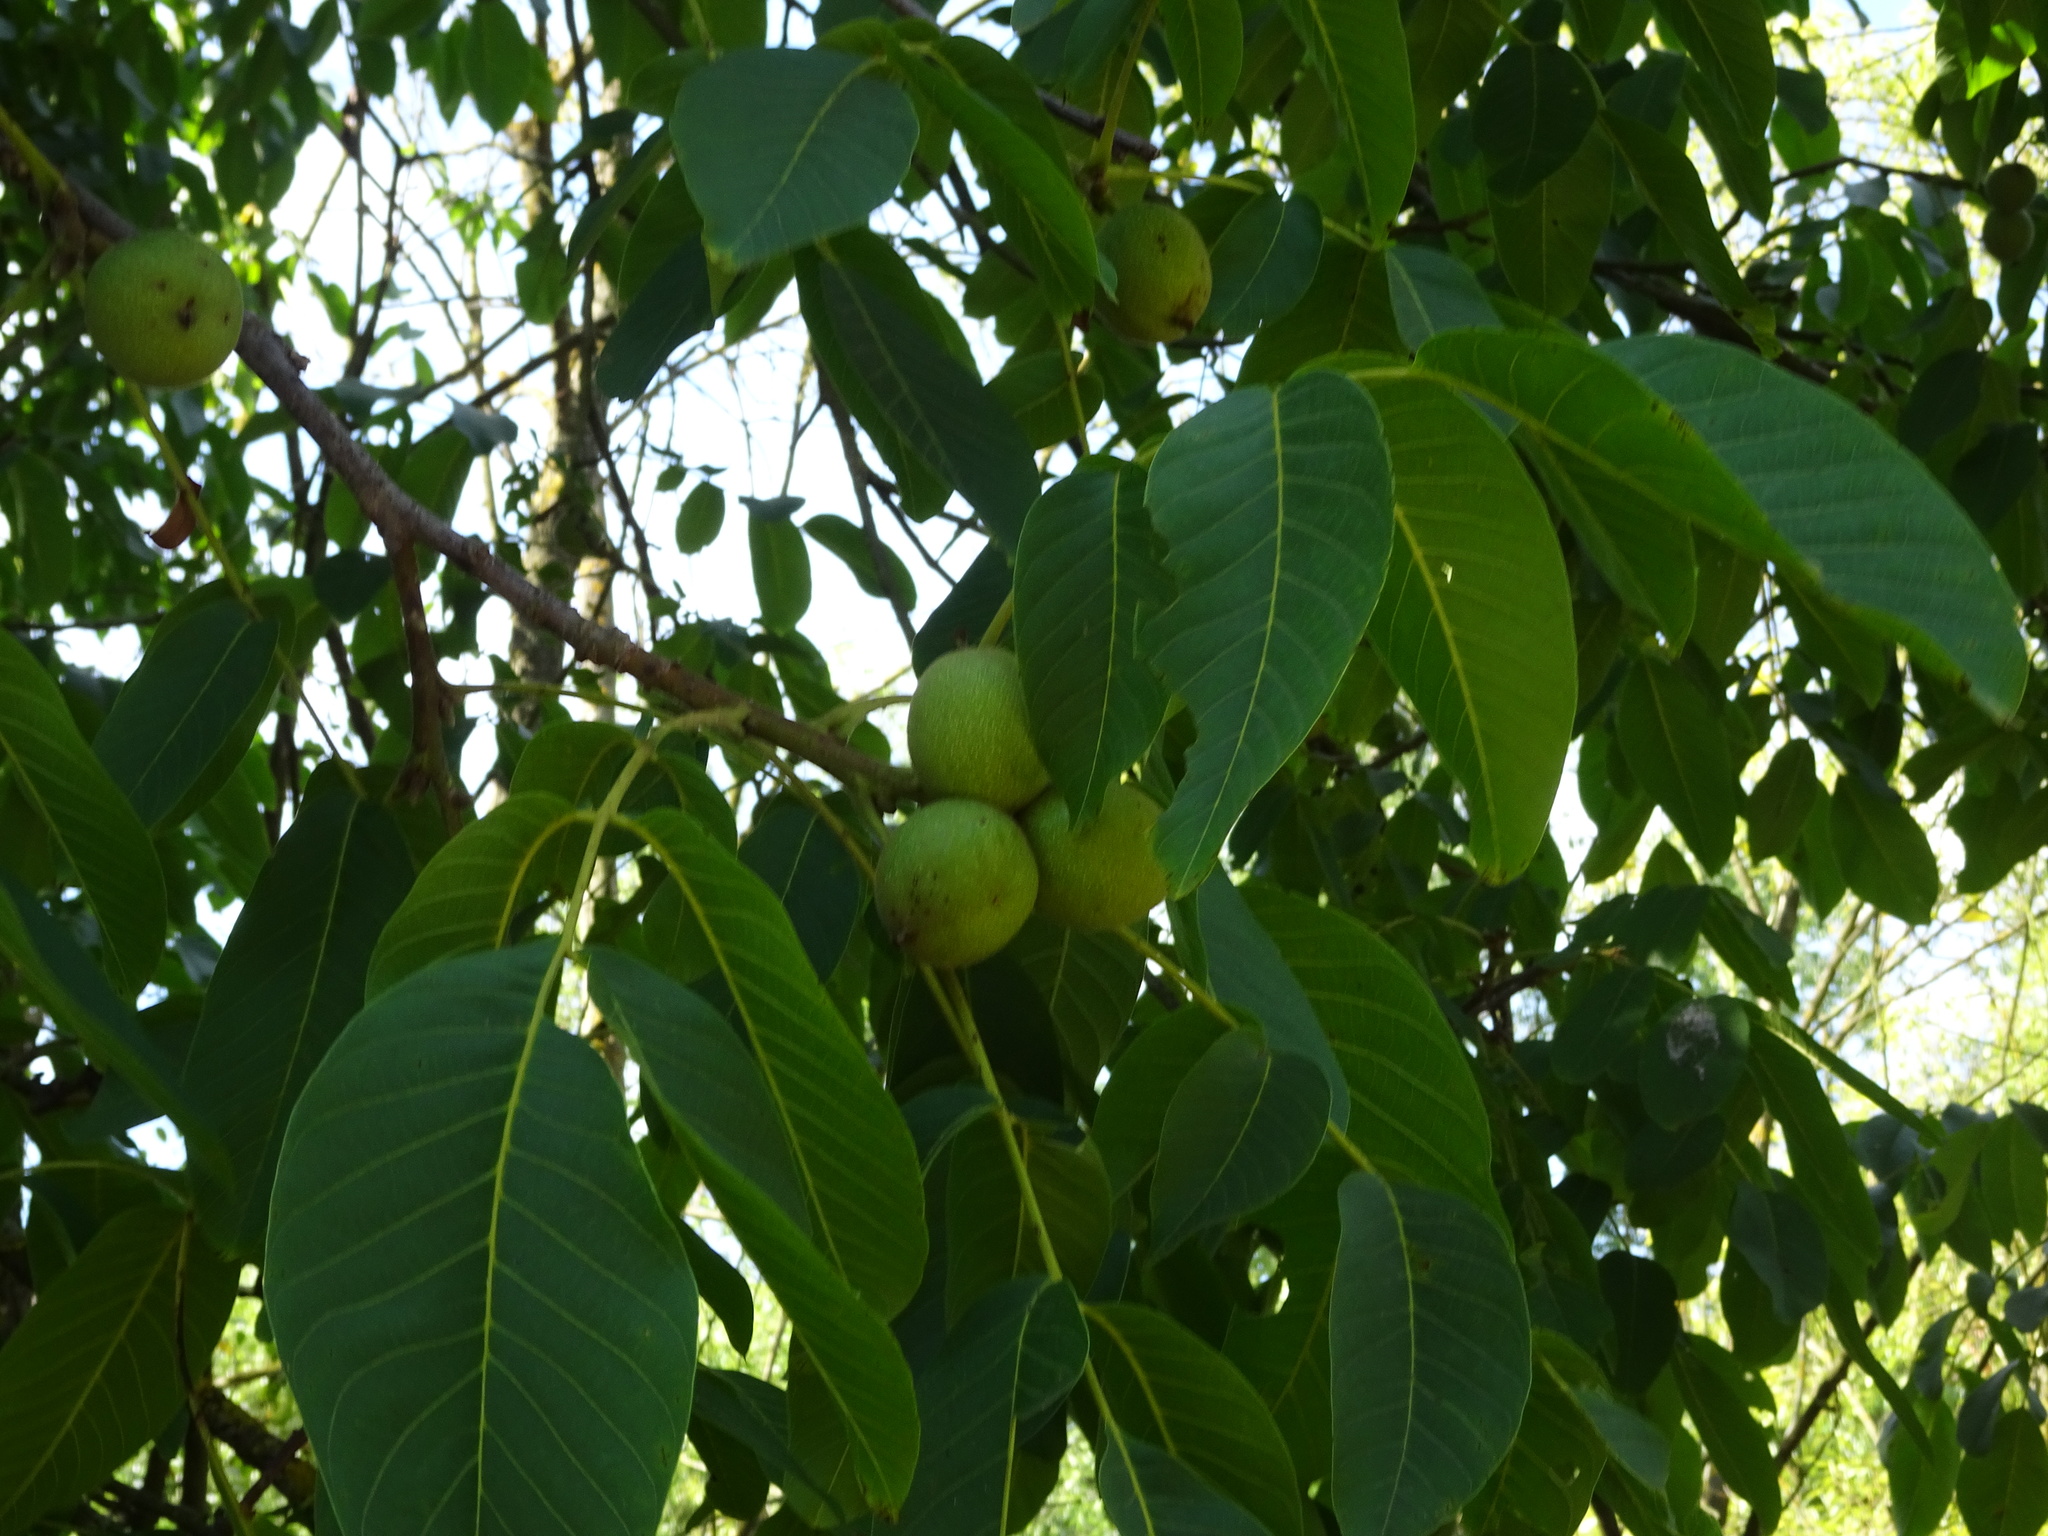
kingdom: Plantae
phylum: Tracheophyta
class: Magnoliopsida
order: Fagales
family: Juglandaceae
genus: Juglans
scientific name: Juglans regia
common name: Walnut
